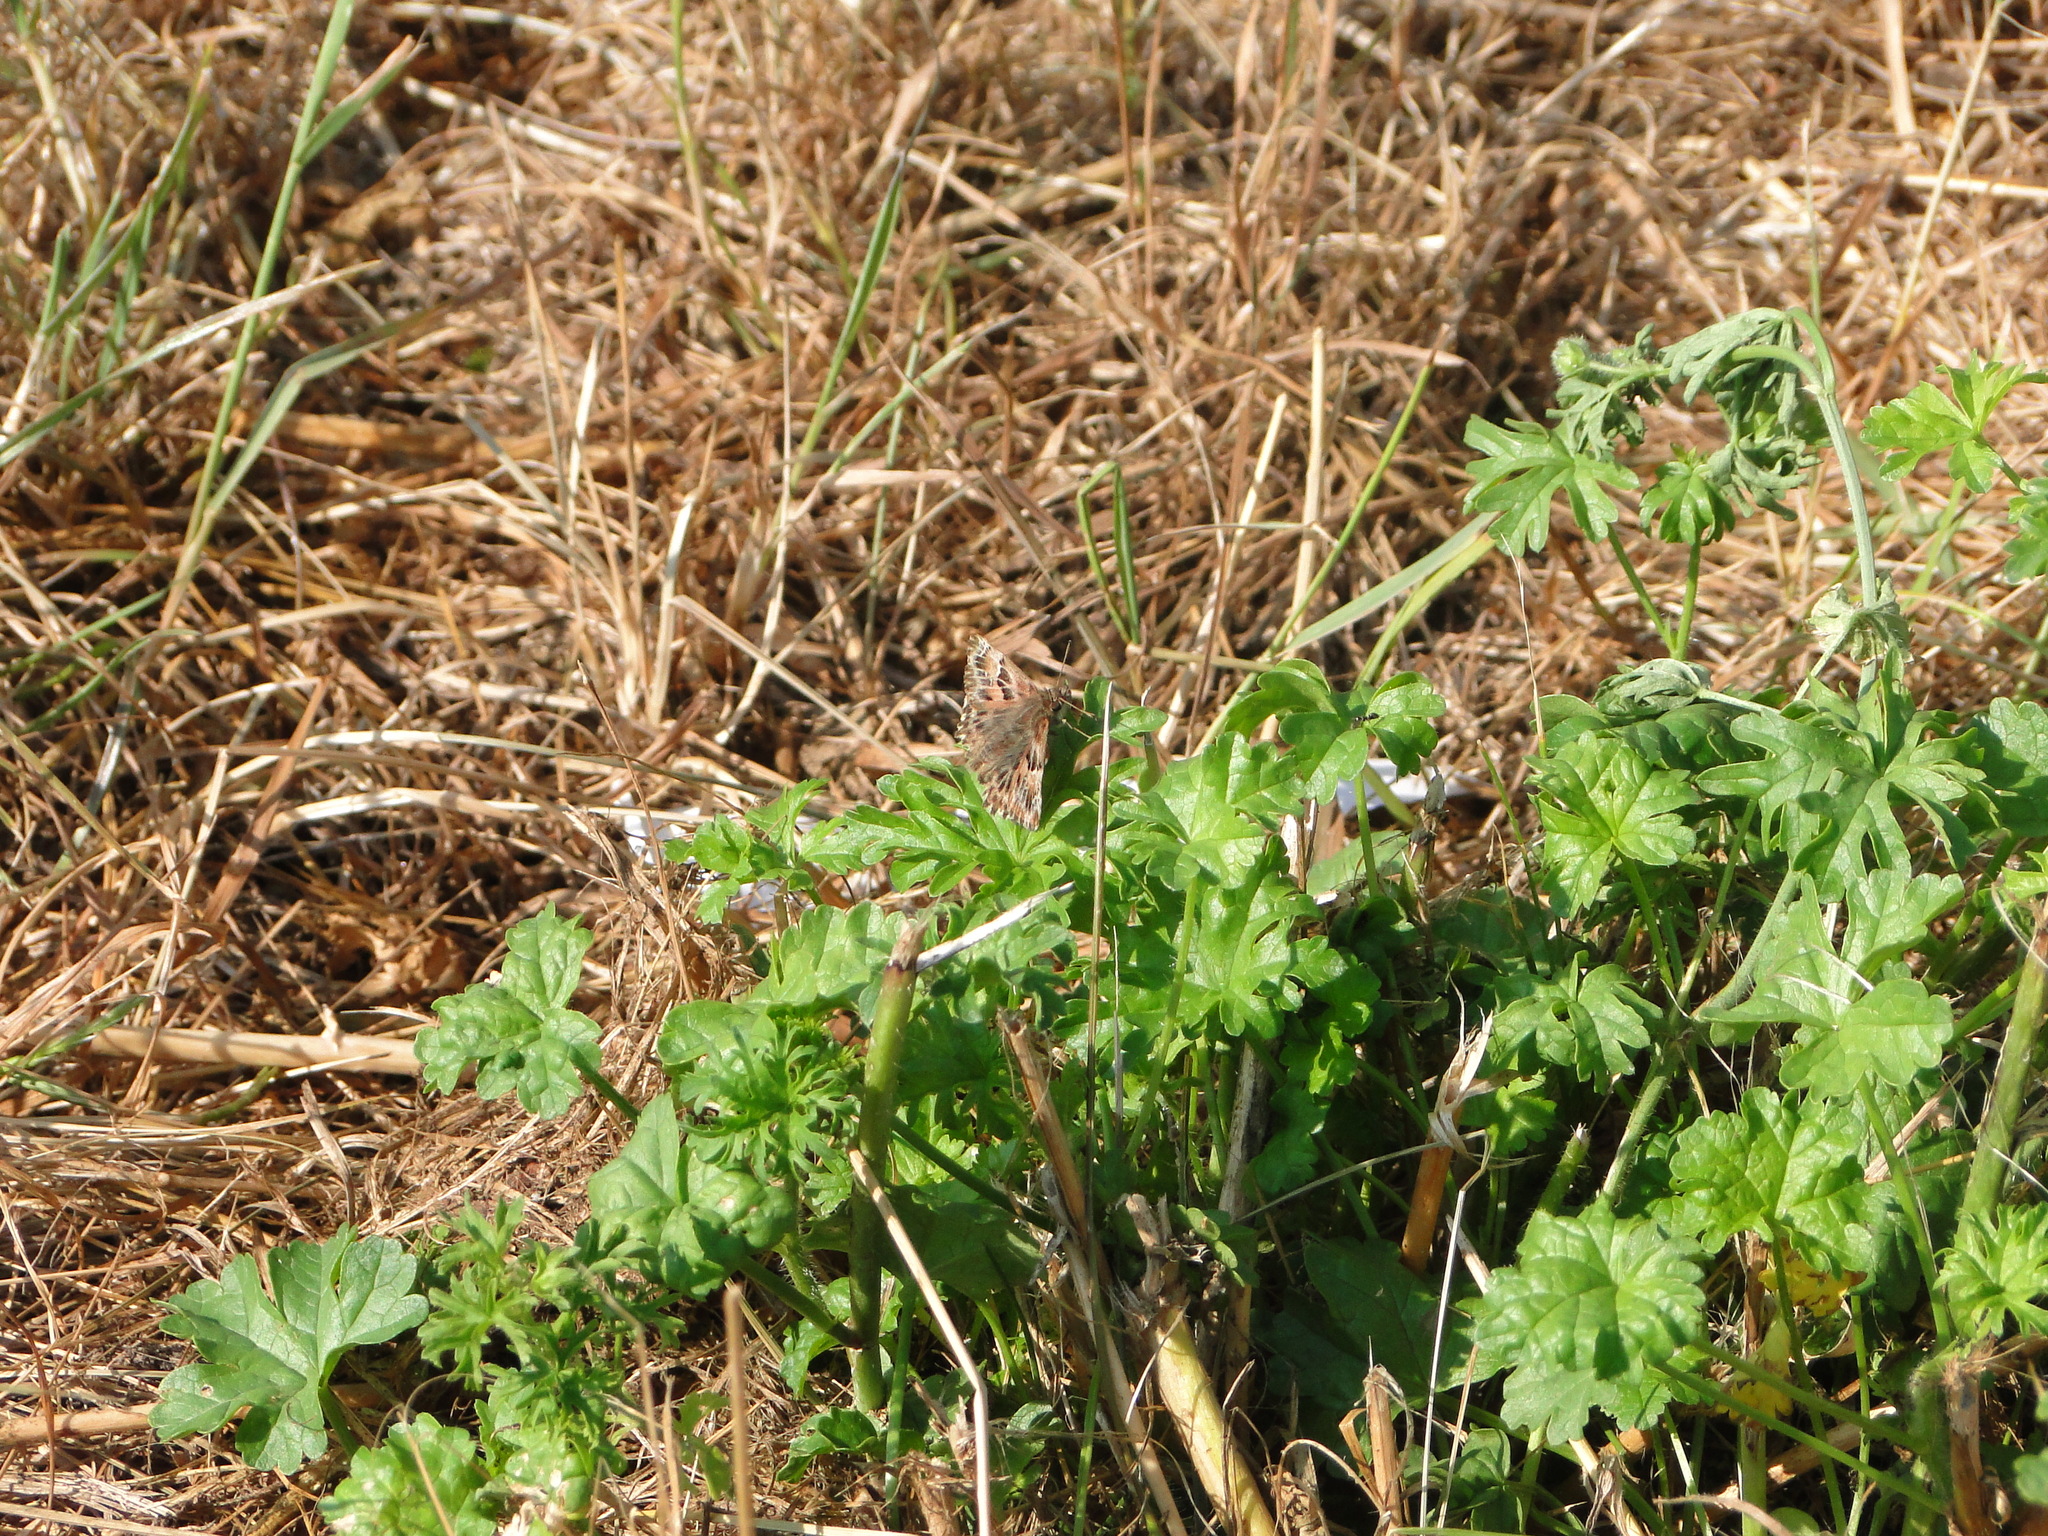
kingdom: Animalia
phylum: Arthropoda
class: Insecta
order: Lepidoptera
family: Hesperiidae
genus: Carcharodus
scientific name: Carcharodus alceae
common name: Mallow skipper
